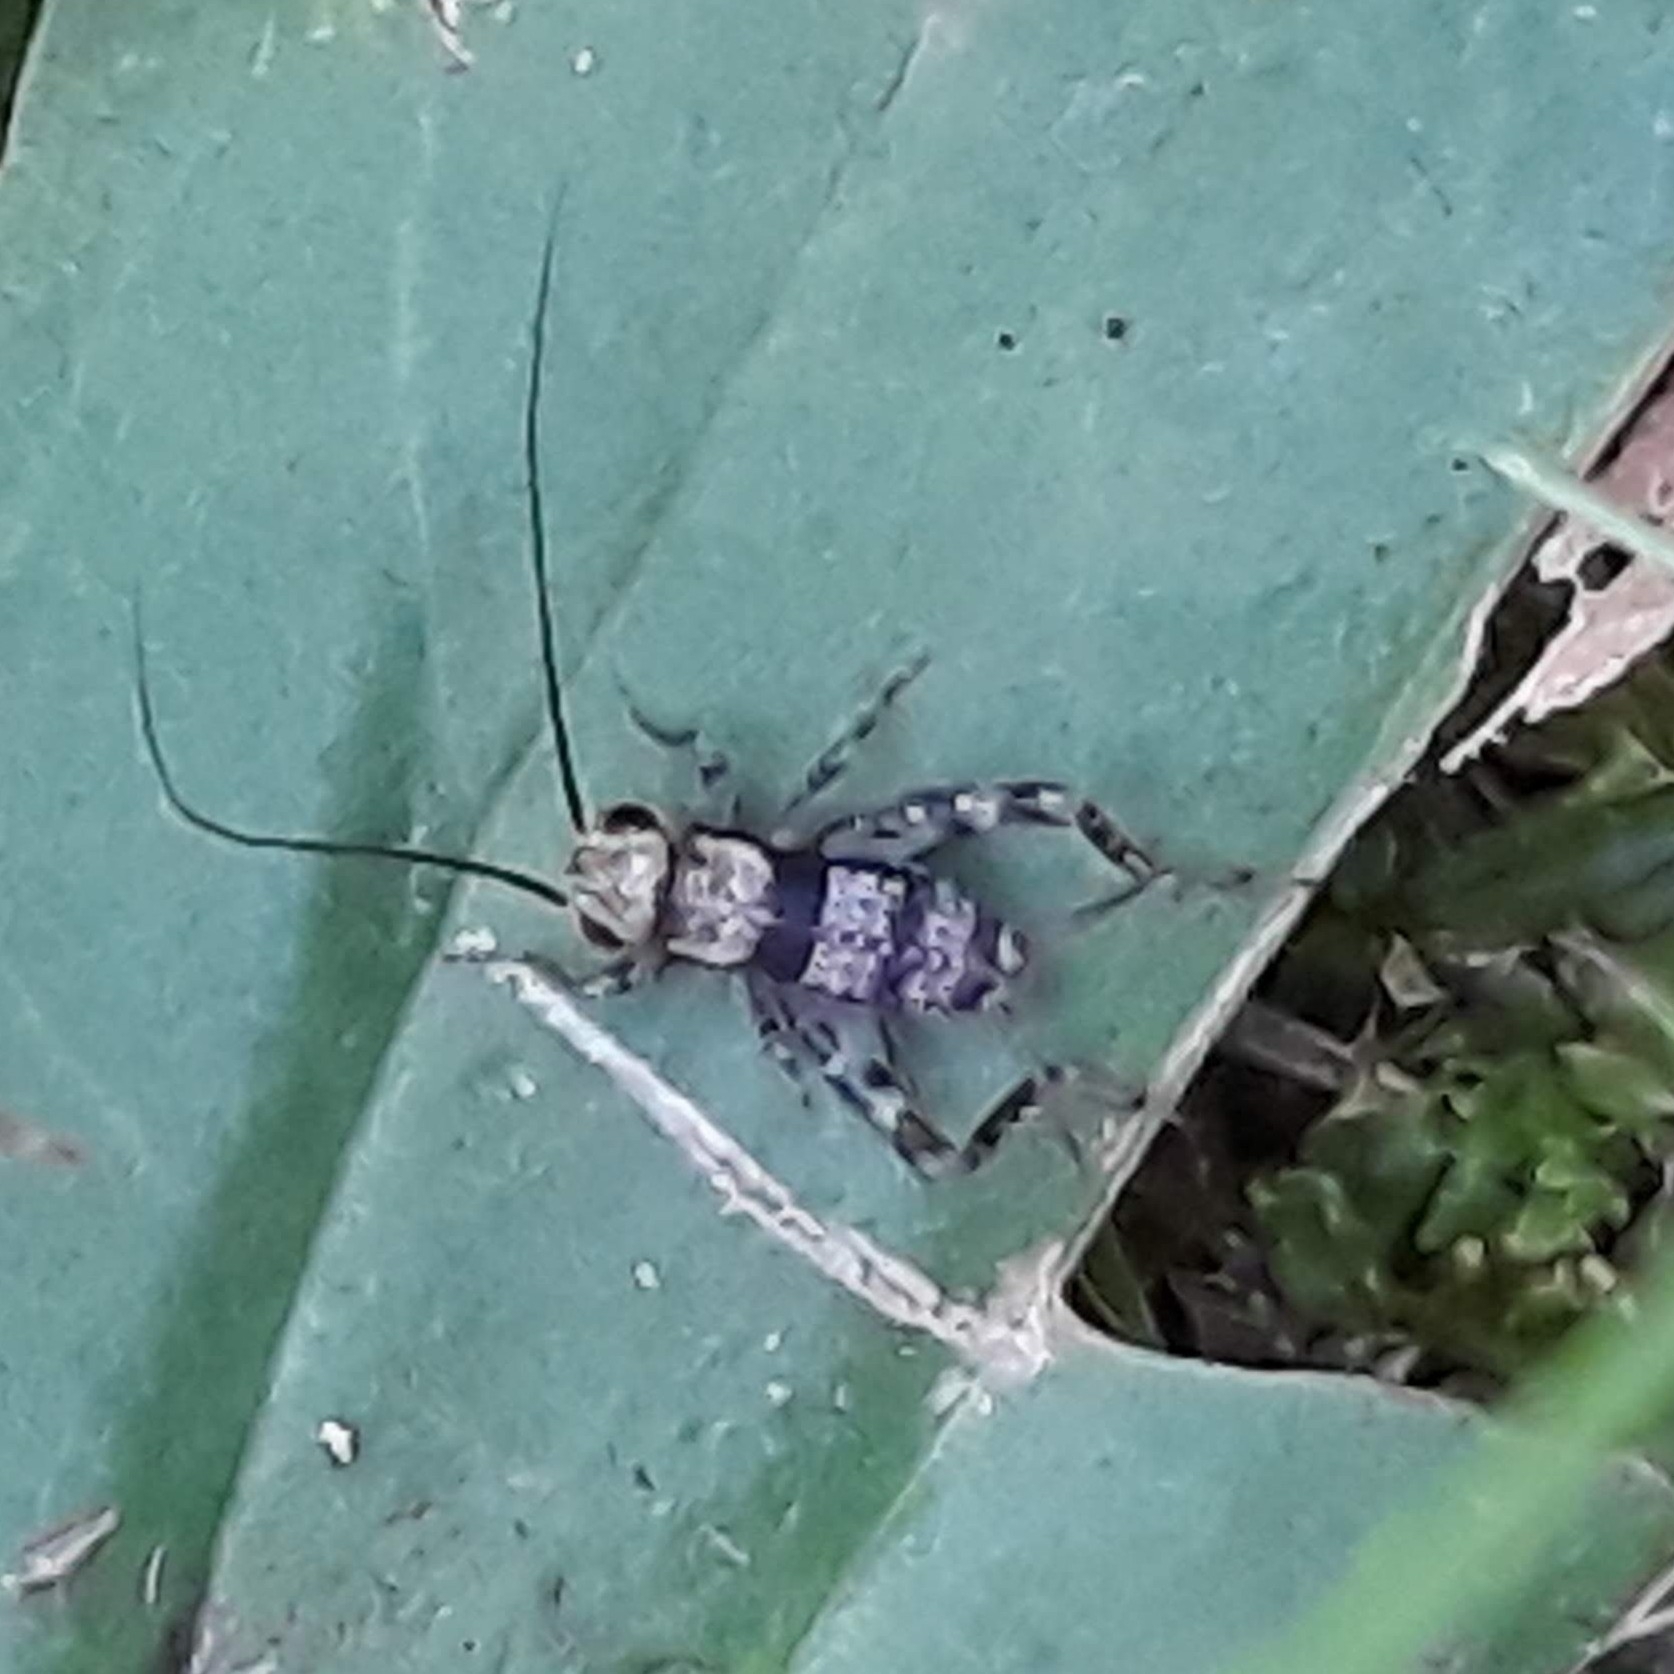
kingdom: Animalia
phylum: Arthropoda
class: Insecta
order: Orthoptera
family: Trigonidiidae
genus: Allonemobius
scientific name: Allonemobius maculatus
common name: Larger spotted ground cricket
